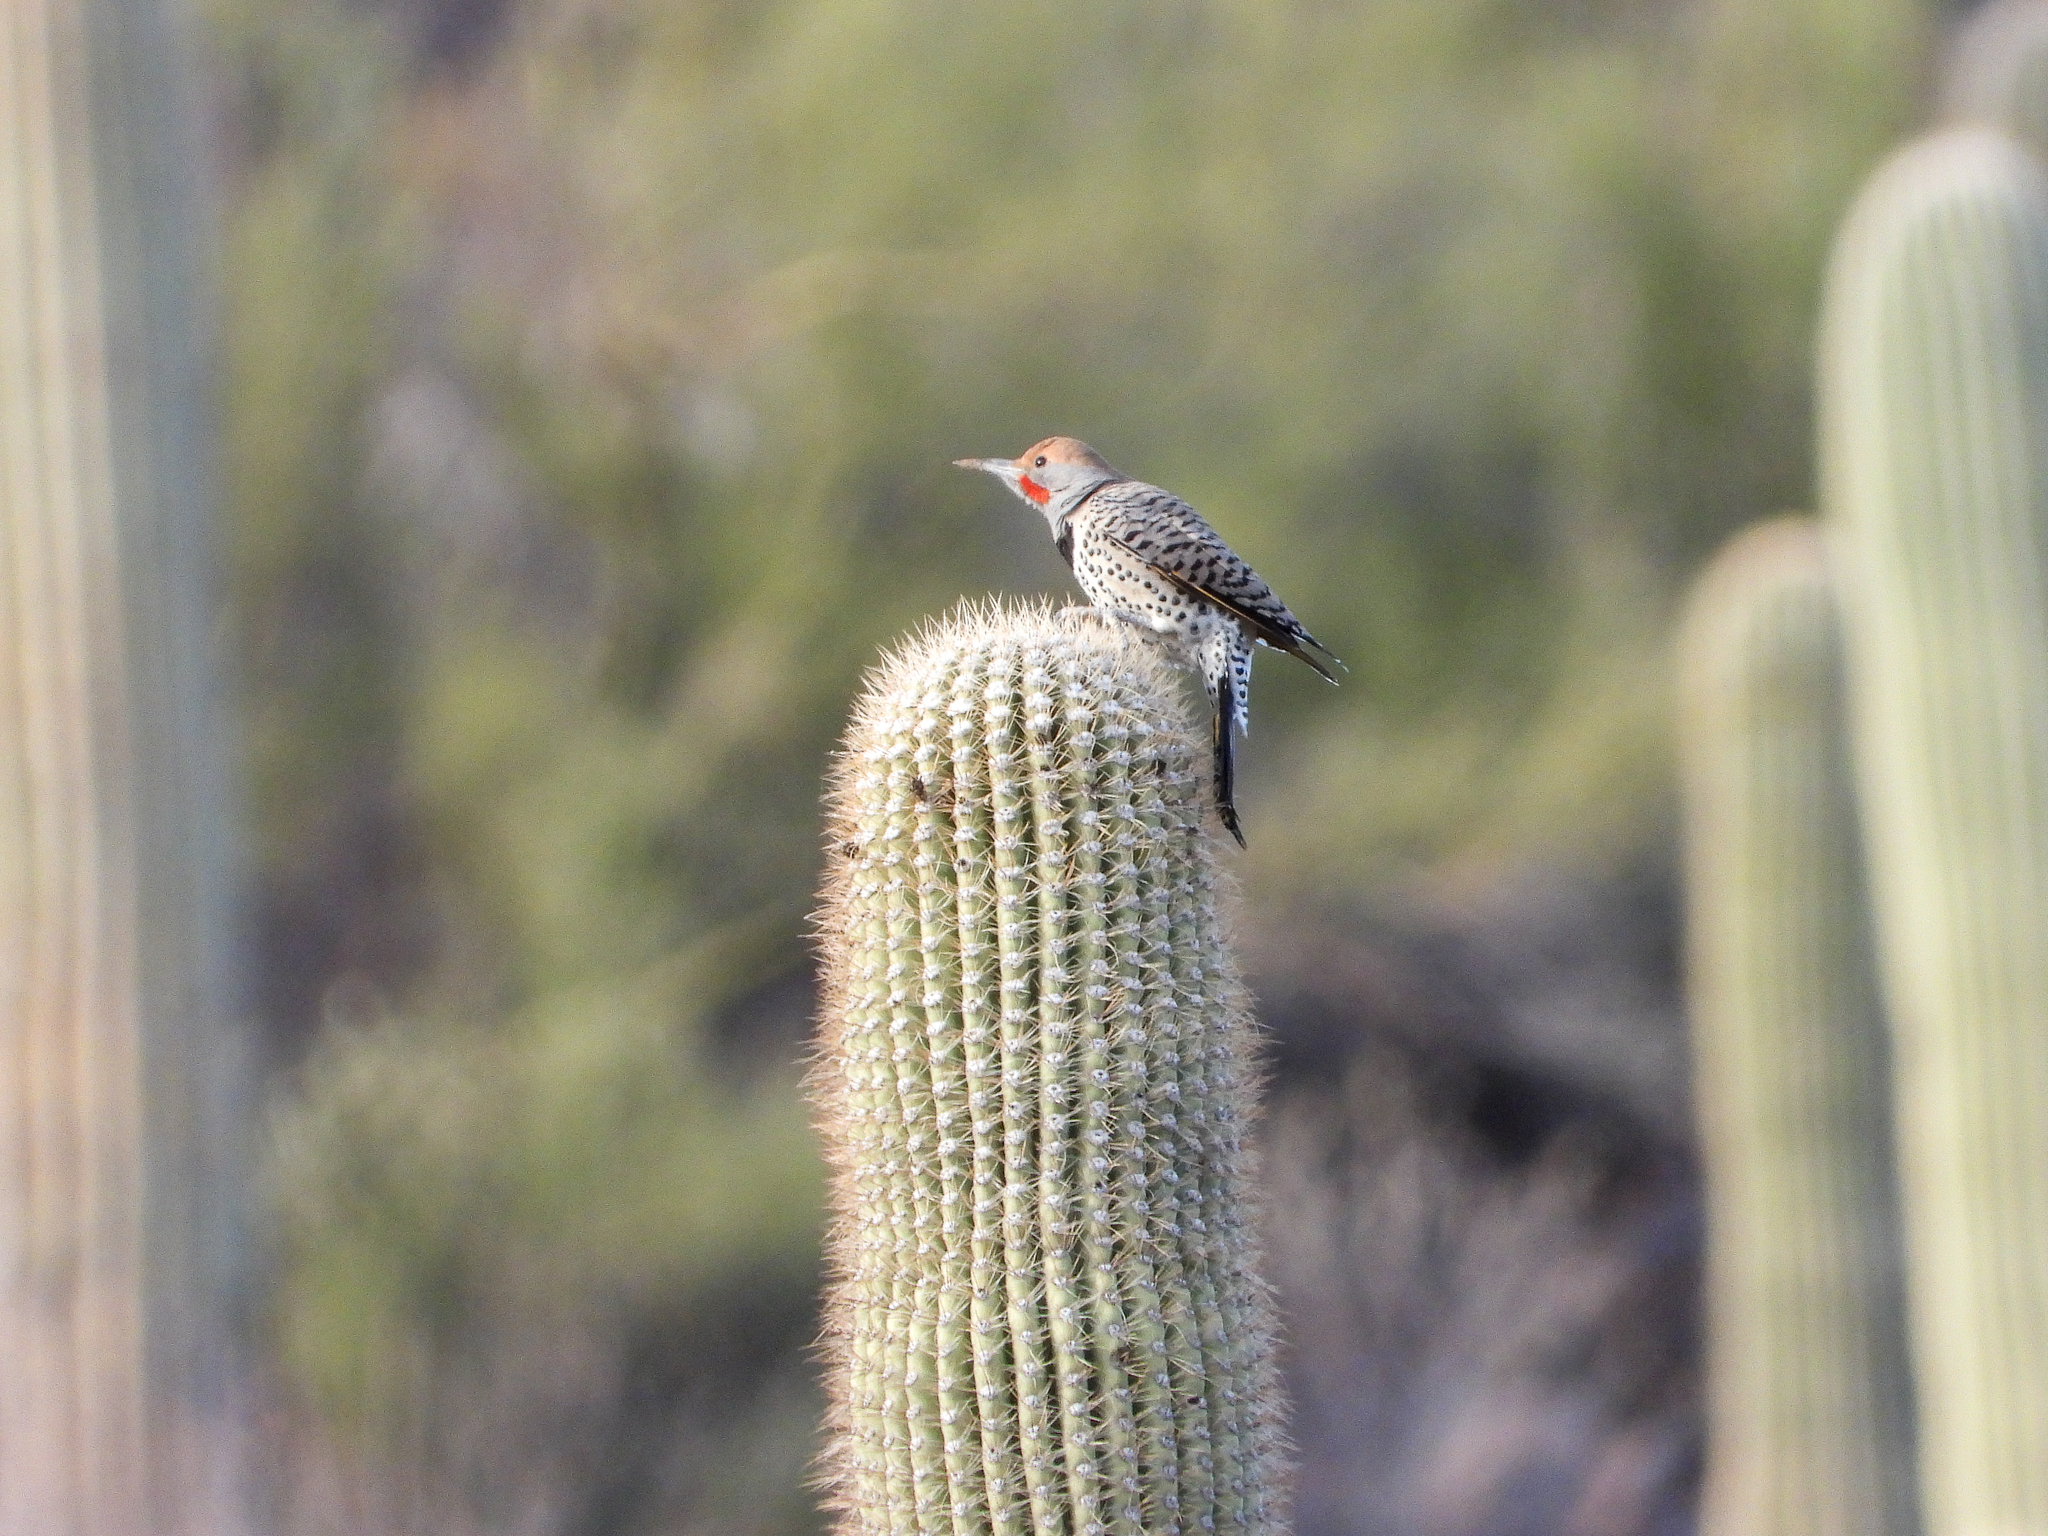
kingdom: Animalia
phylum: Chordata
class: Aves
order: Piciformes
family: Picidae
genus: Colaptes
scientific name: Colaptes chrysoides
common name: Gilded flicker
